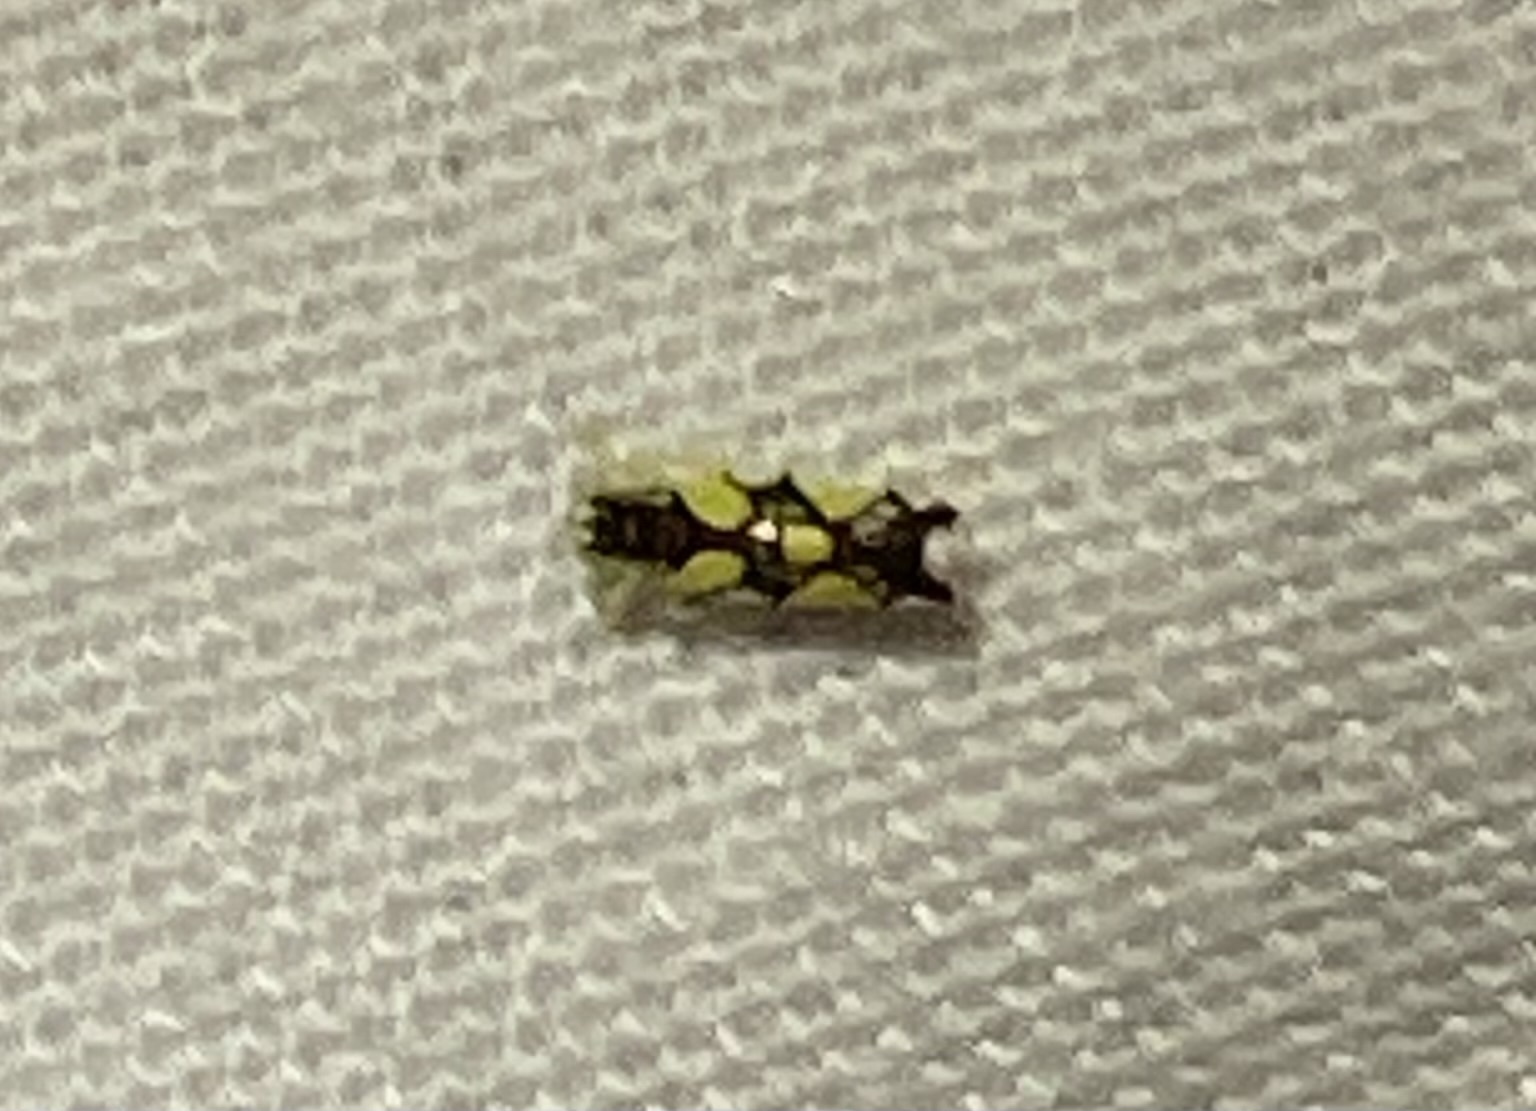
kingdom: Animalia
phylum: Arthropoda
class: Insecta
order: Hemiptera
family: Cicadellidae
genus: Protalebrella
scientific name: Protalebrella brasiliensis
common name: Brasilian leafhopper
